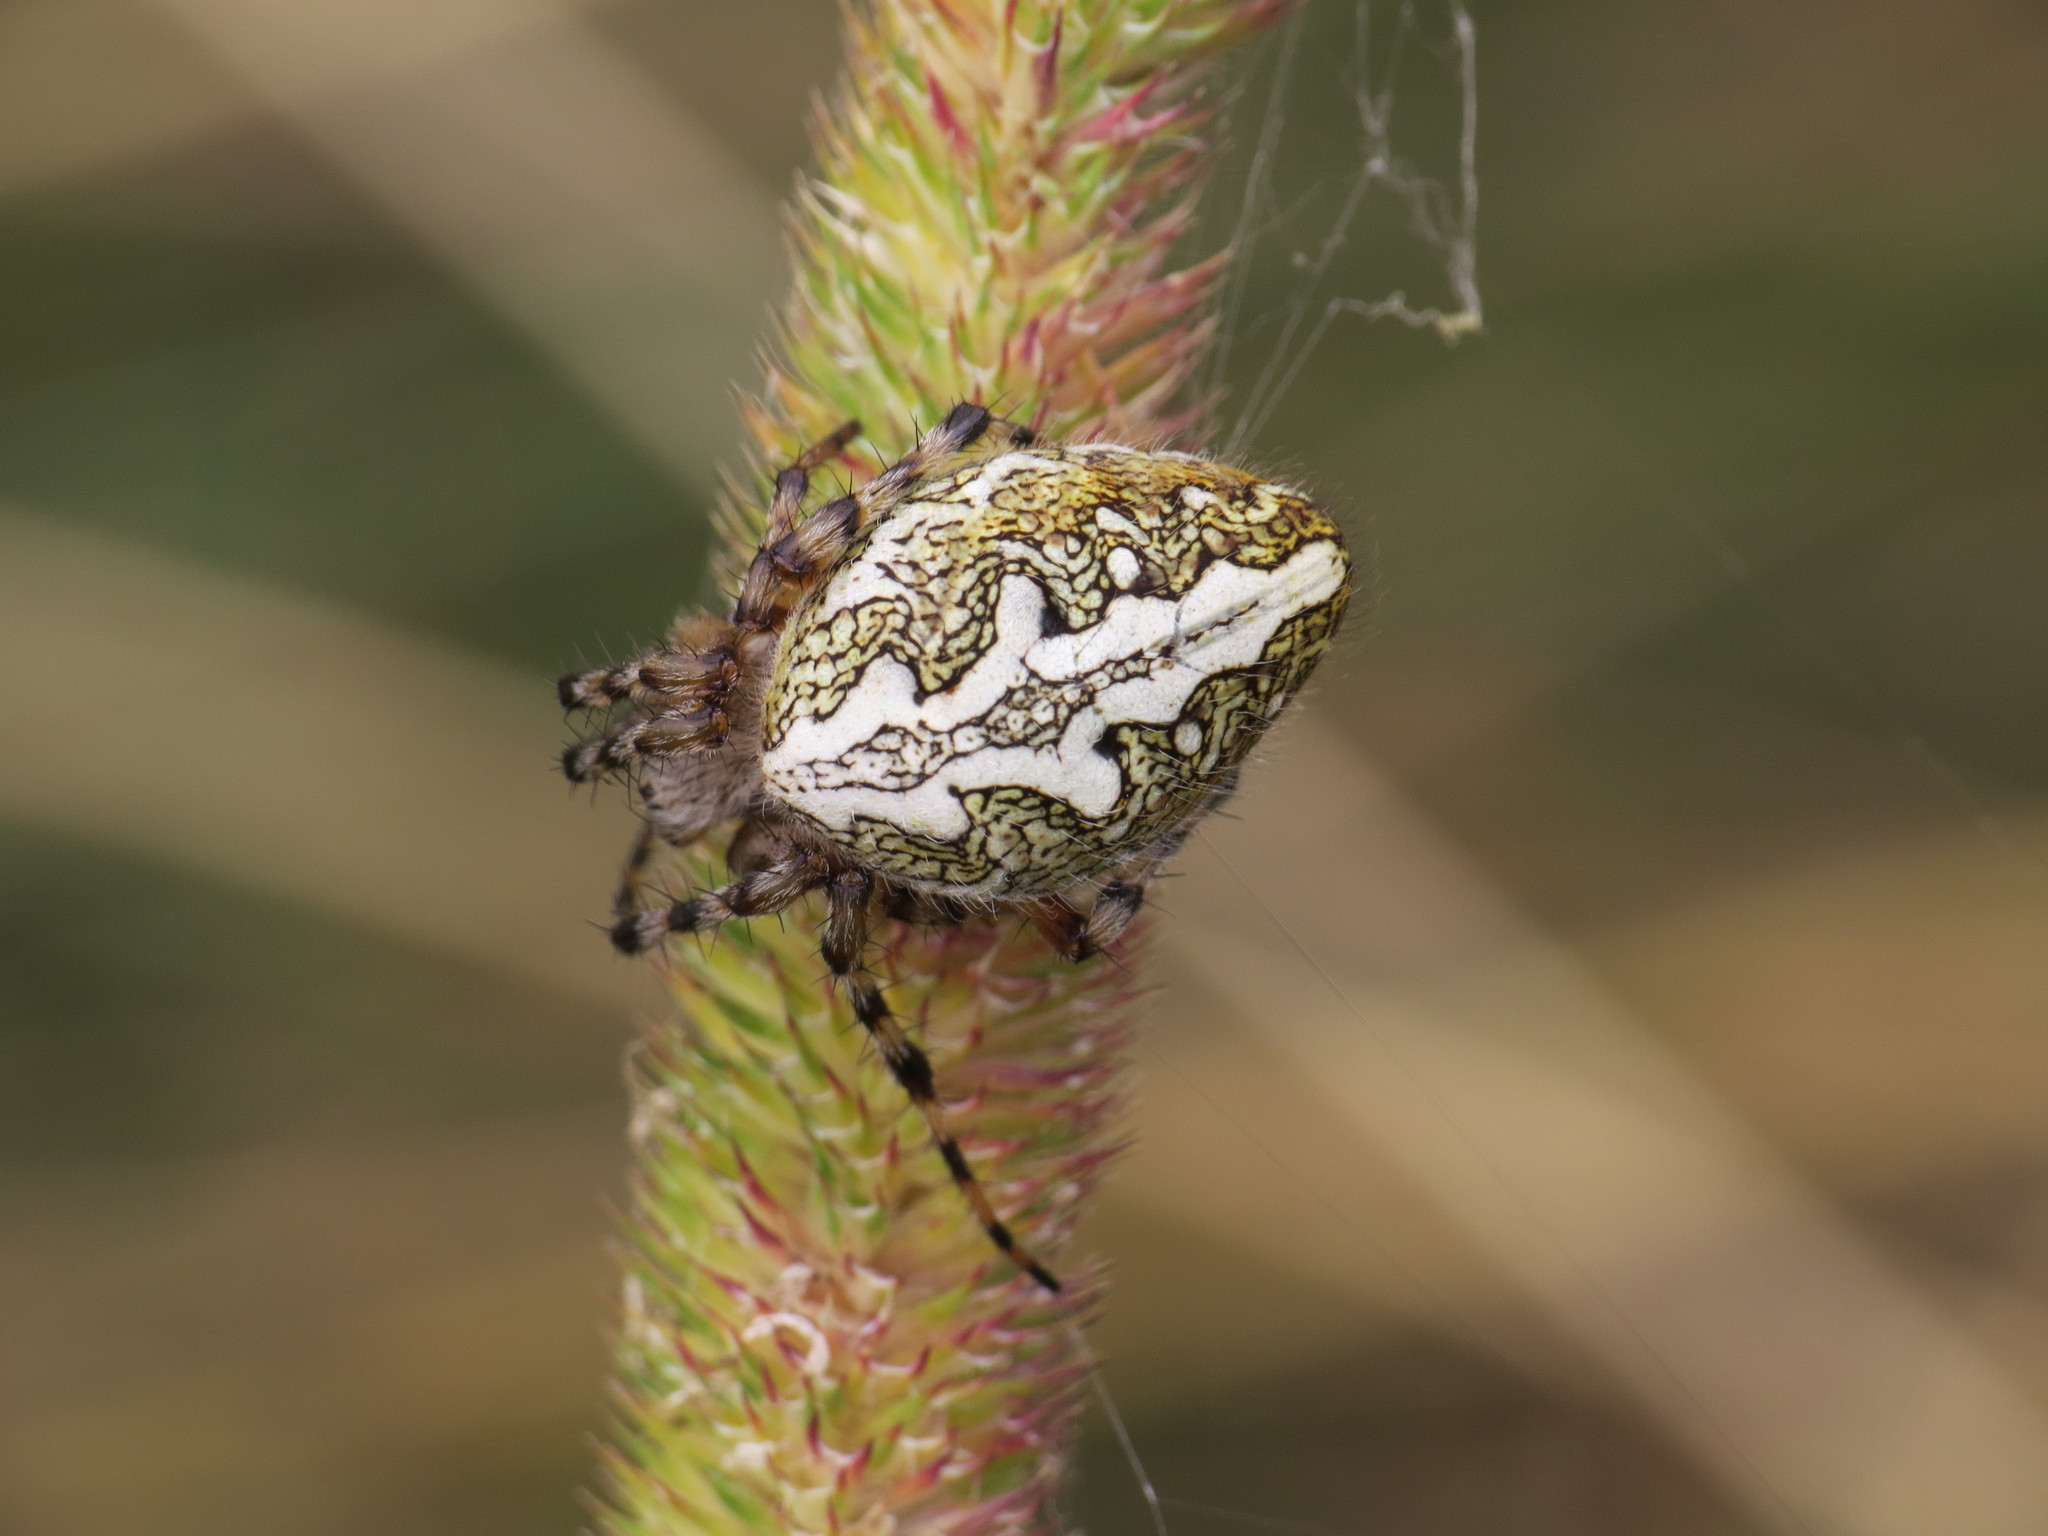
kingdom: Animalia
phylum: Arthropoda
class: Arachnida
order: Araneae
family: Araneidae
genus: Aculepeira
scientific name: Aculepeira ceropegia
